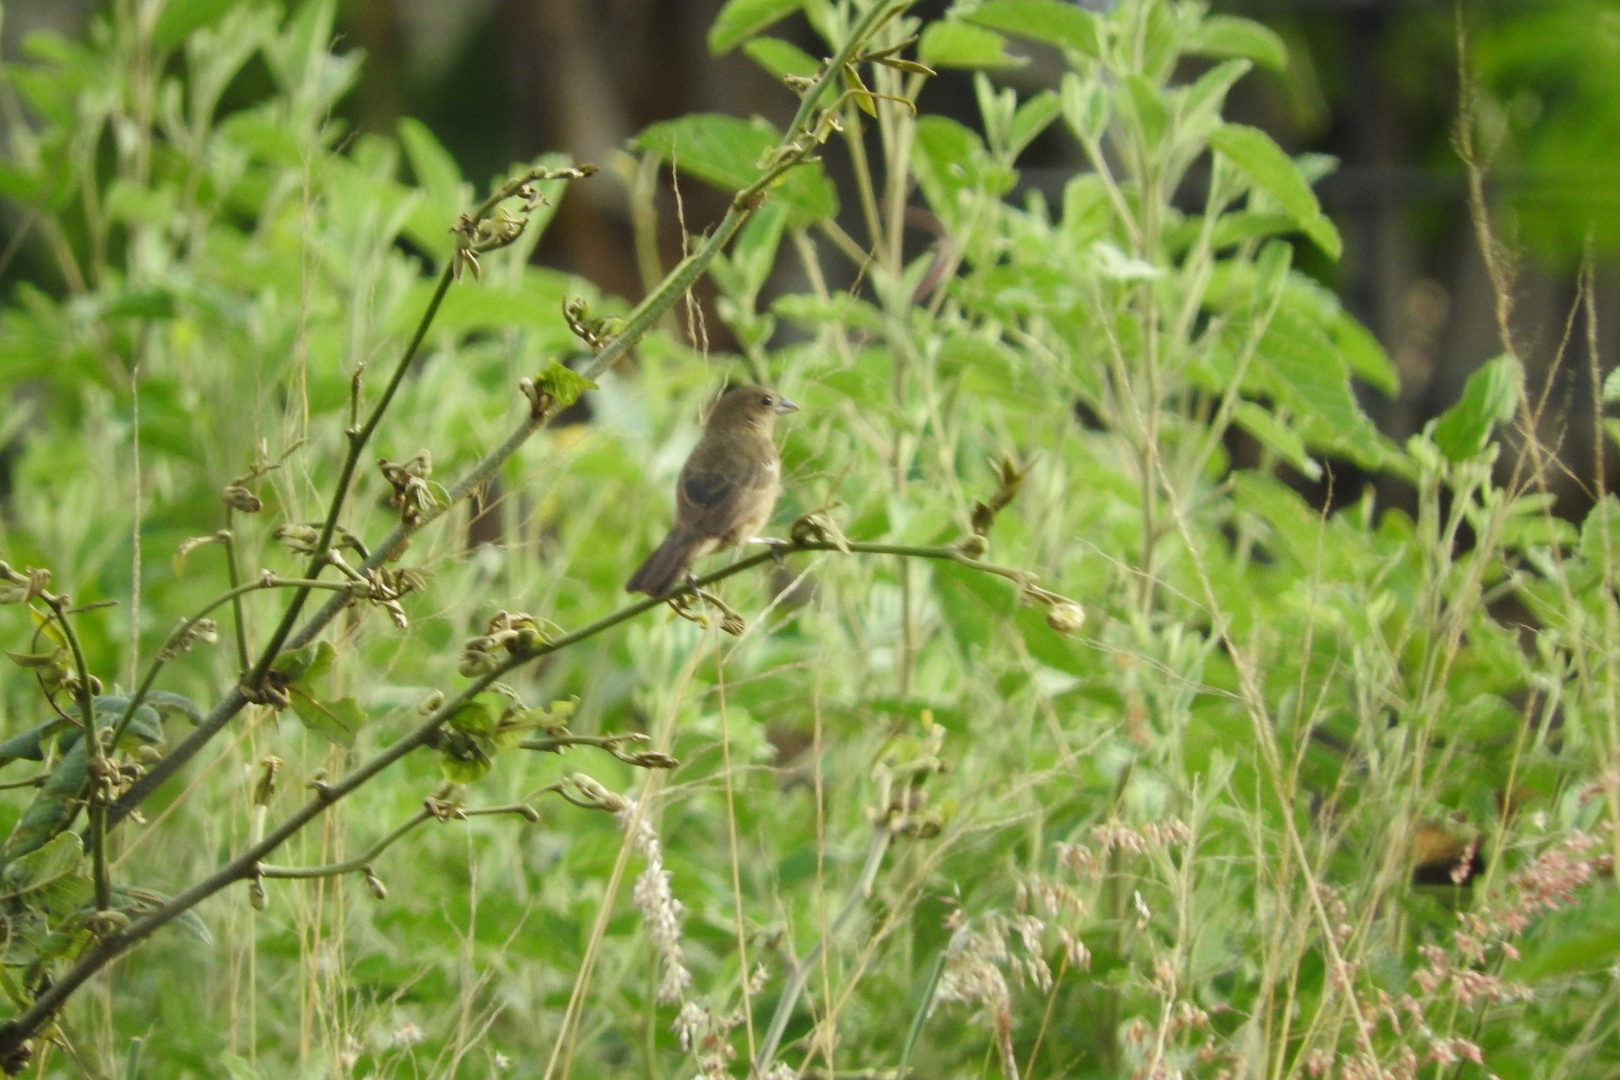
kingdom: Animalia
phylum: Chordata
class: Aves
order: Passeriformes
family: Thraupidae
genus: Volatinia
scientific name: Volatinia jacarina
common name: Blue-black grassquit
